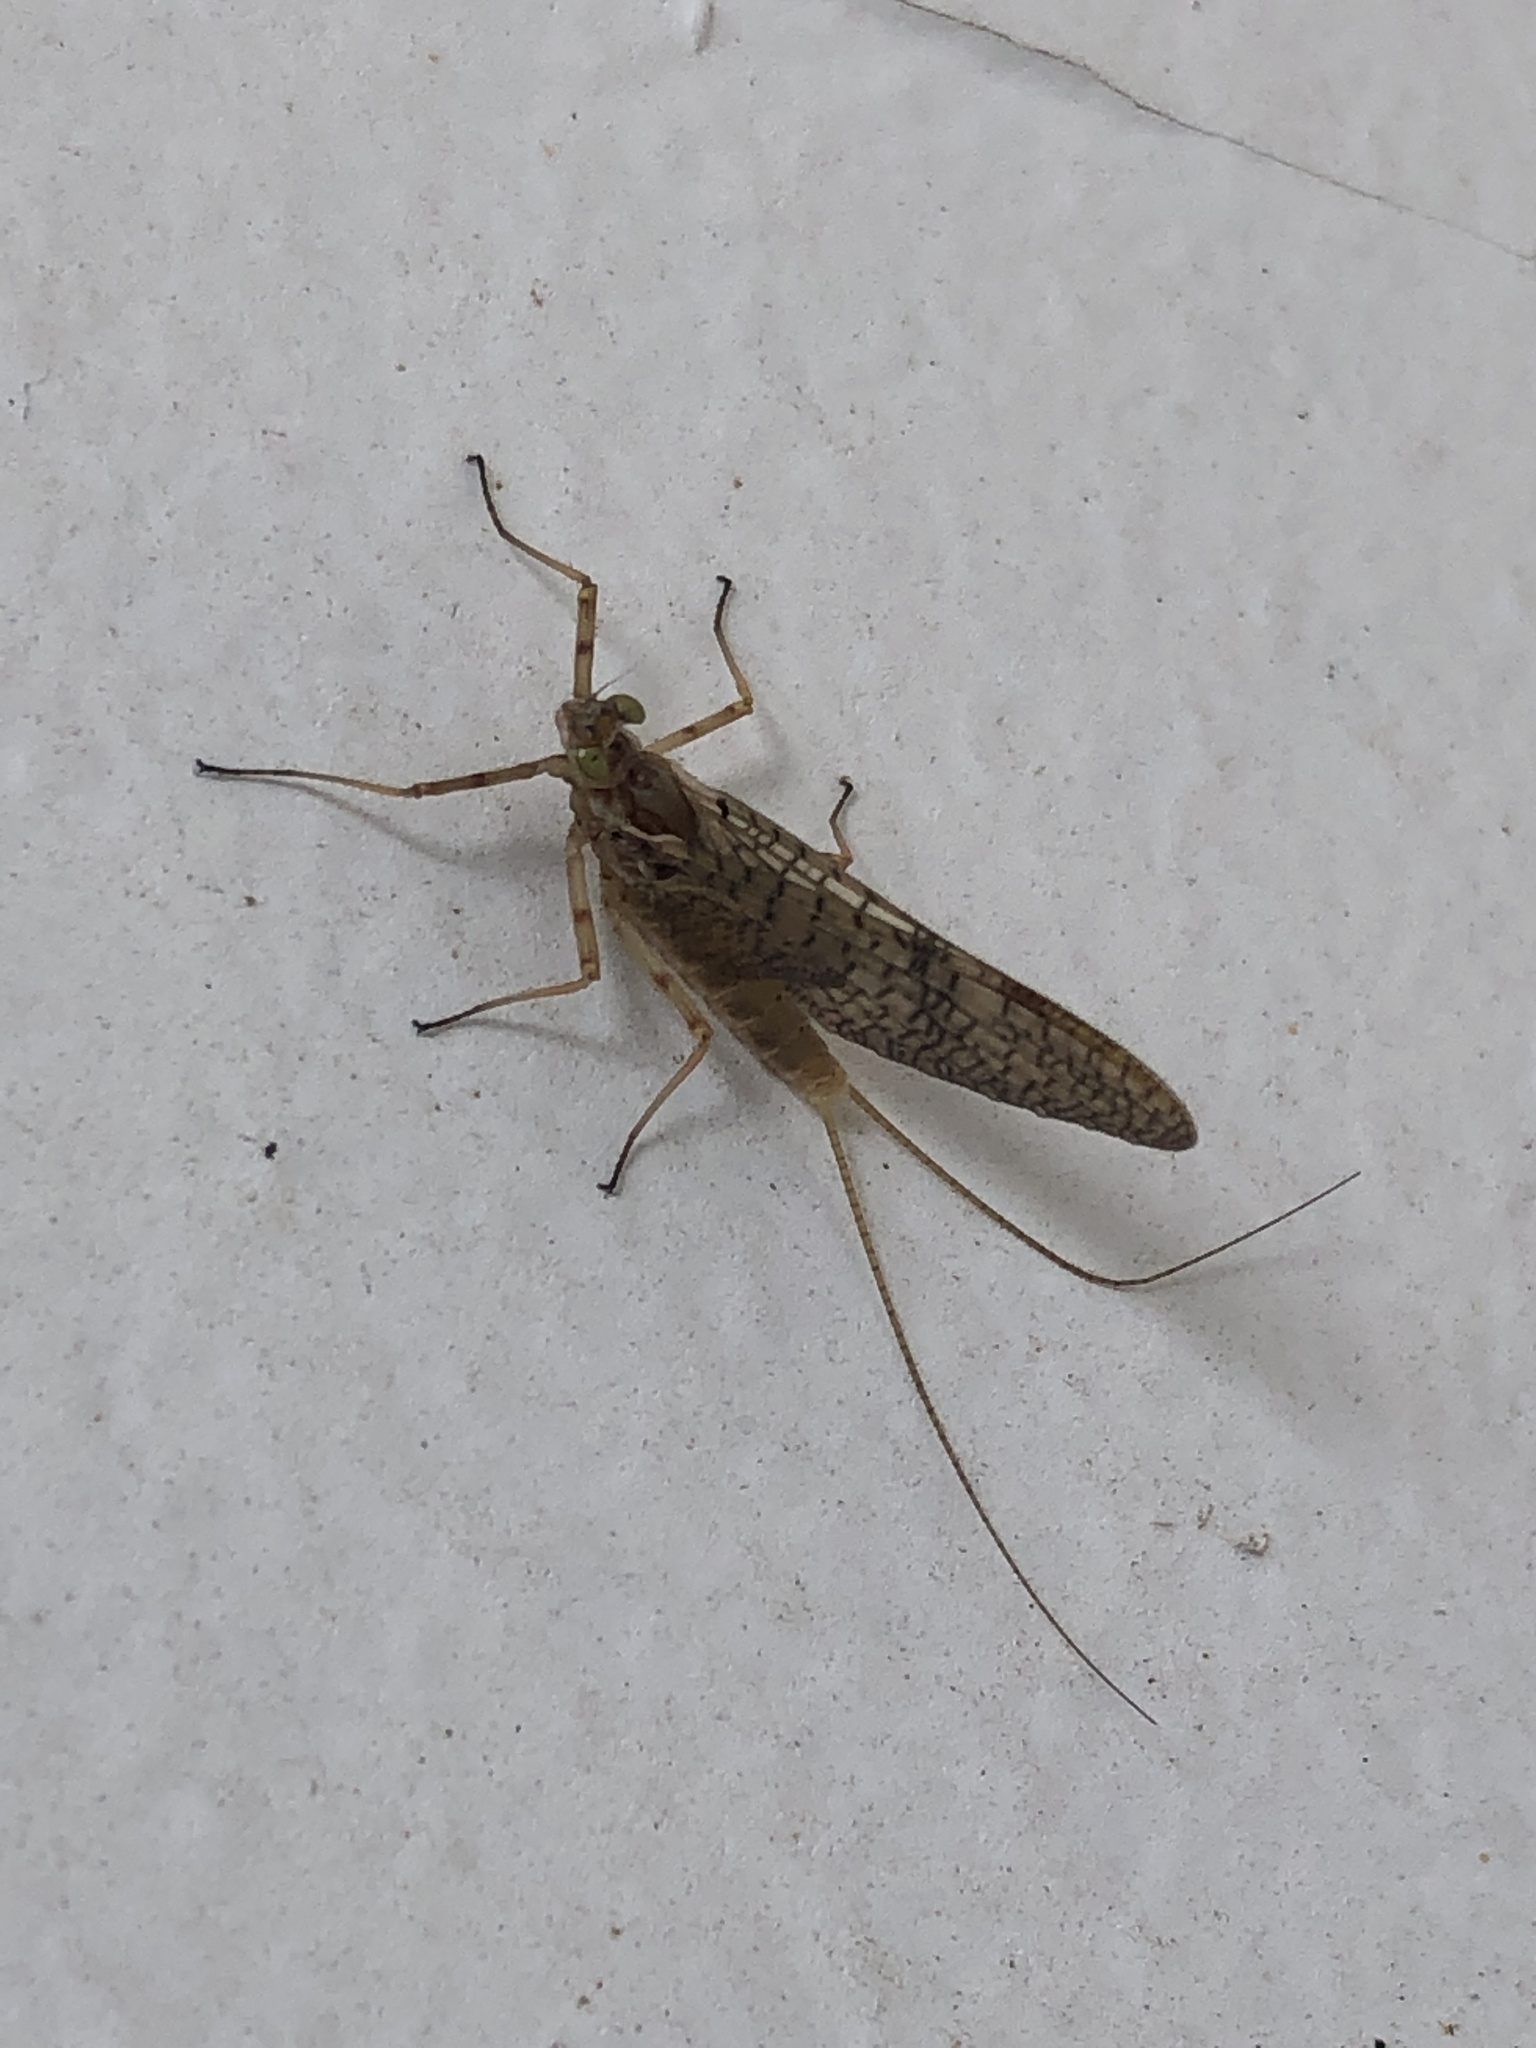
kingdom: Animalia
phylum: Arthropoda
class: Insecta
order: Ephemeroptera
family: Heptageniidae
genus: Stenonema
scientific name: Stenonema femoratum
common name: Dark cahill
